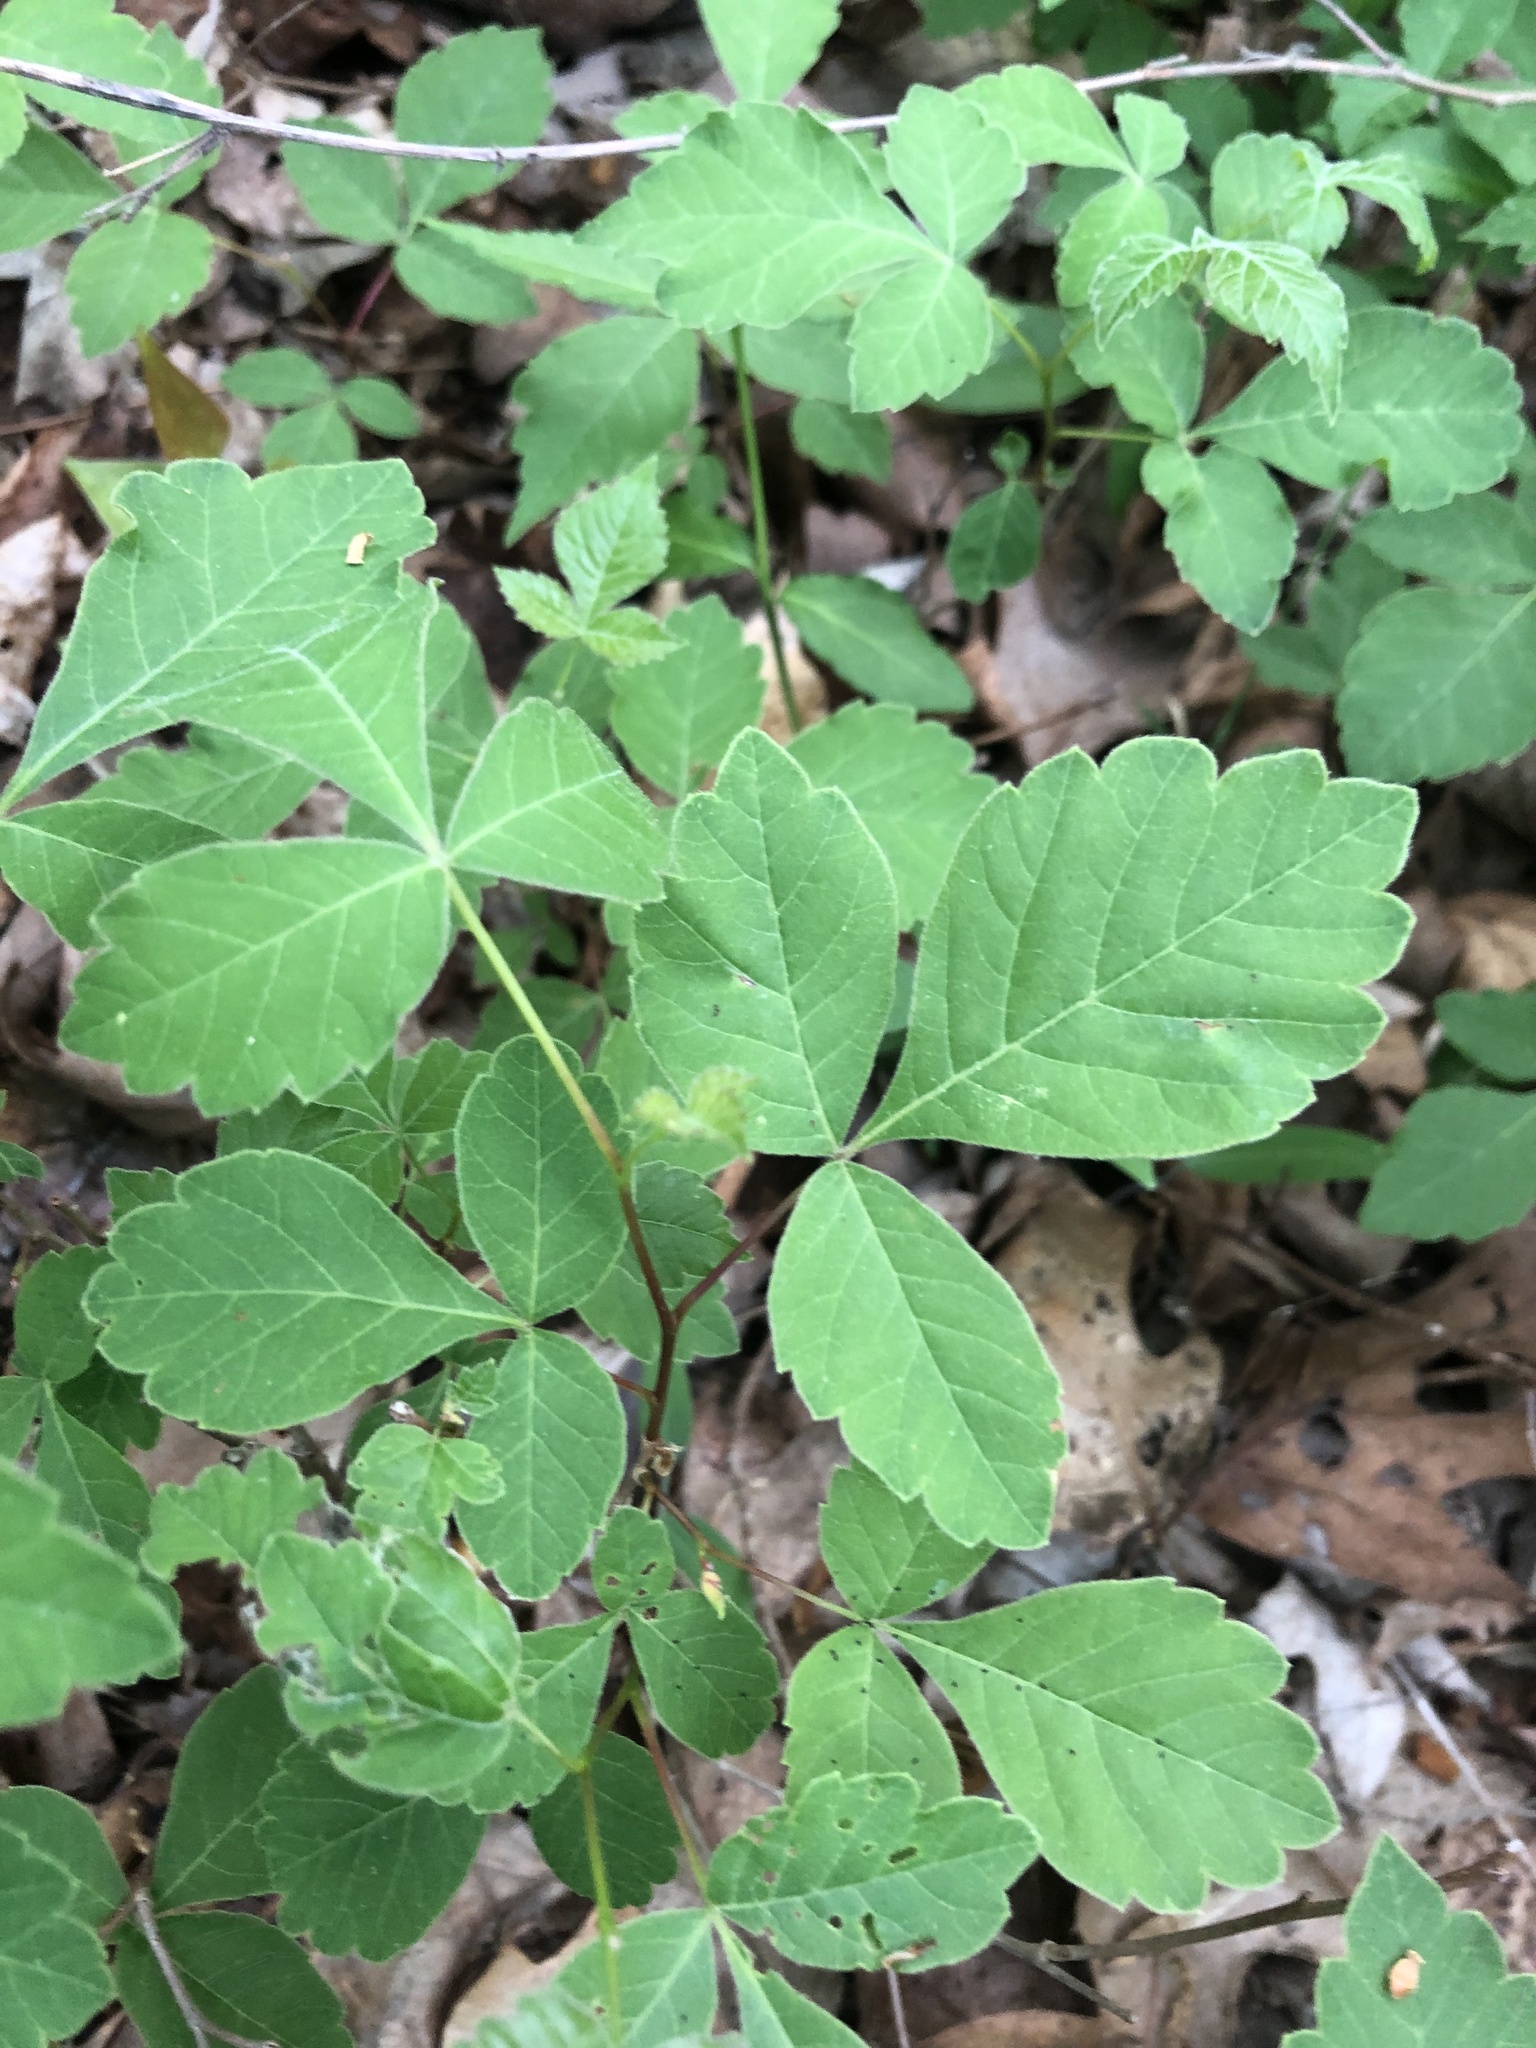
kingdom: Plantae
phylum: Tracheophyta
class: Magnoliopsida
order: Sapindales
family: Anacardiaceae
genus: Rhus
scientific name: Rhus aromatica
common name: Aromatic sumac
